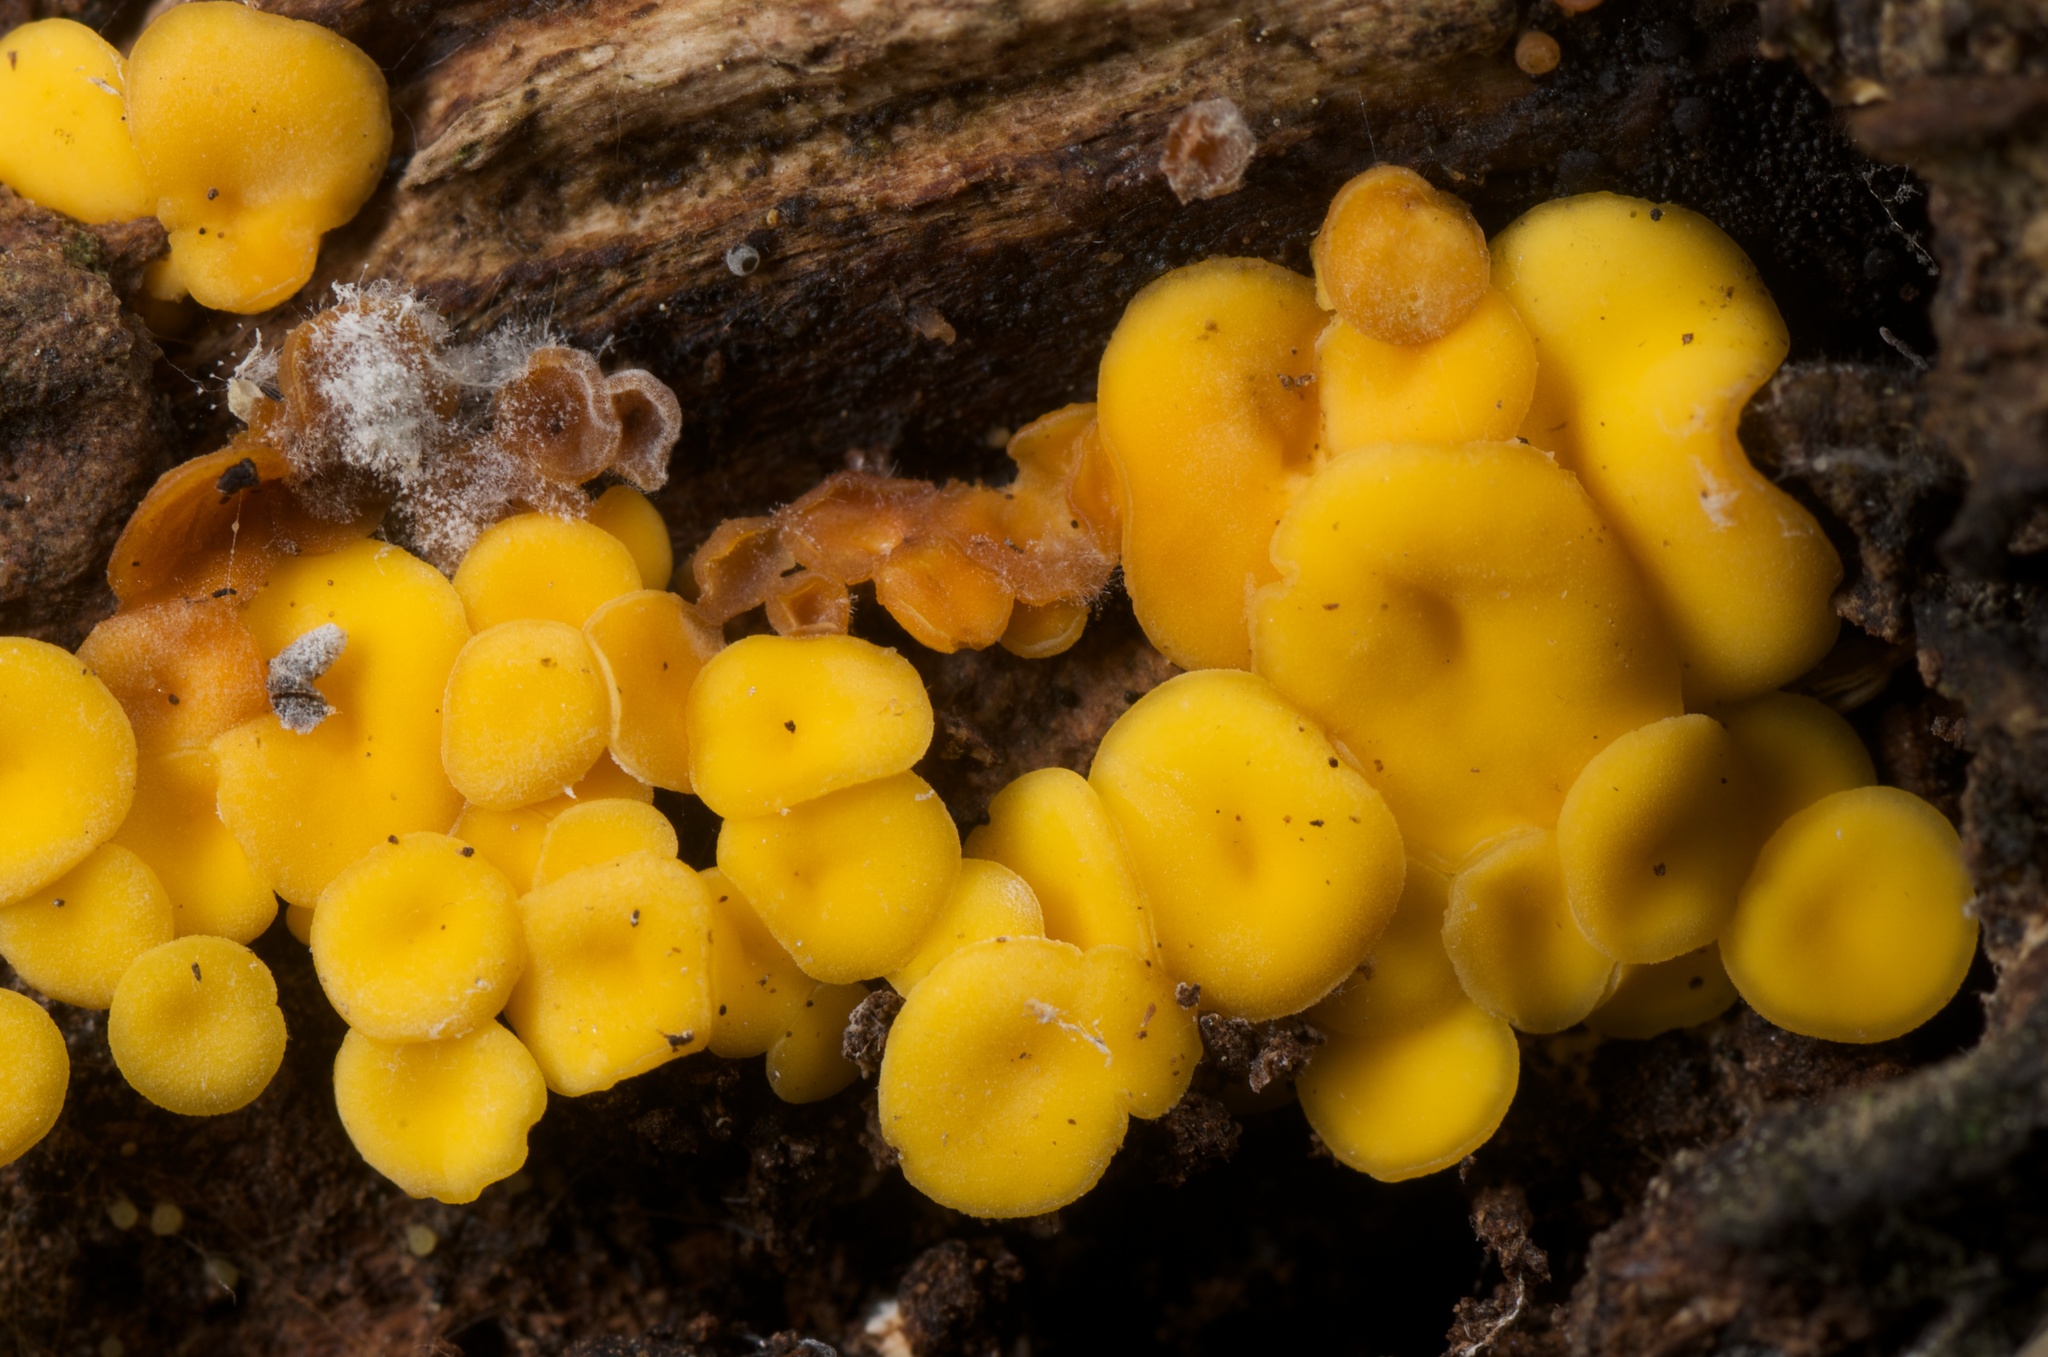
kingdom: Fungi
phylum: Ascomycota
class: Leotiomycetes
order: Helotiales
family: Pezizellaceae
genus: Calycina
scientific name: Calycina citrina
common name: Yellow fairy cups
